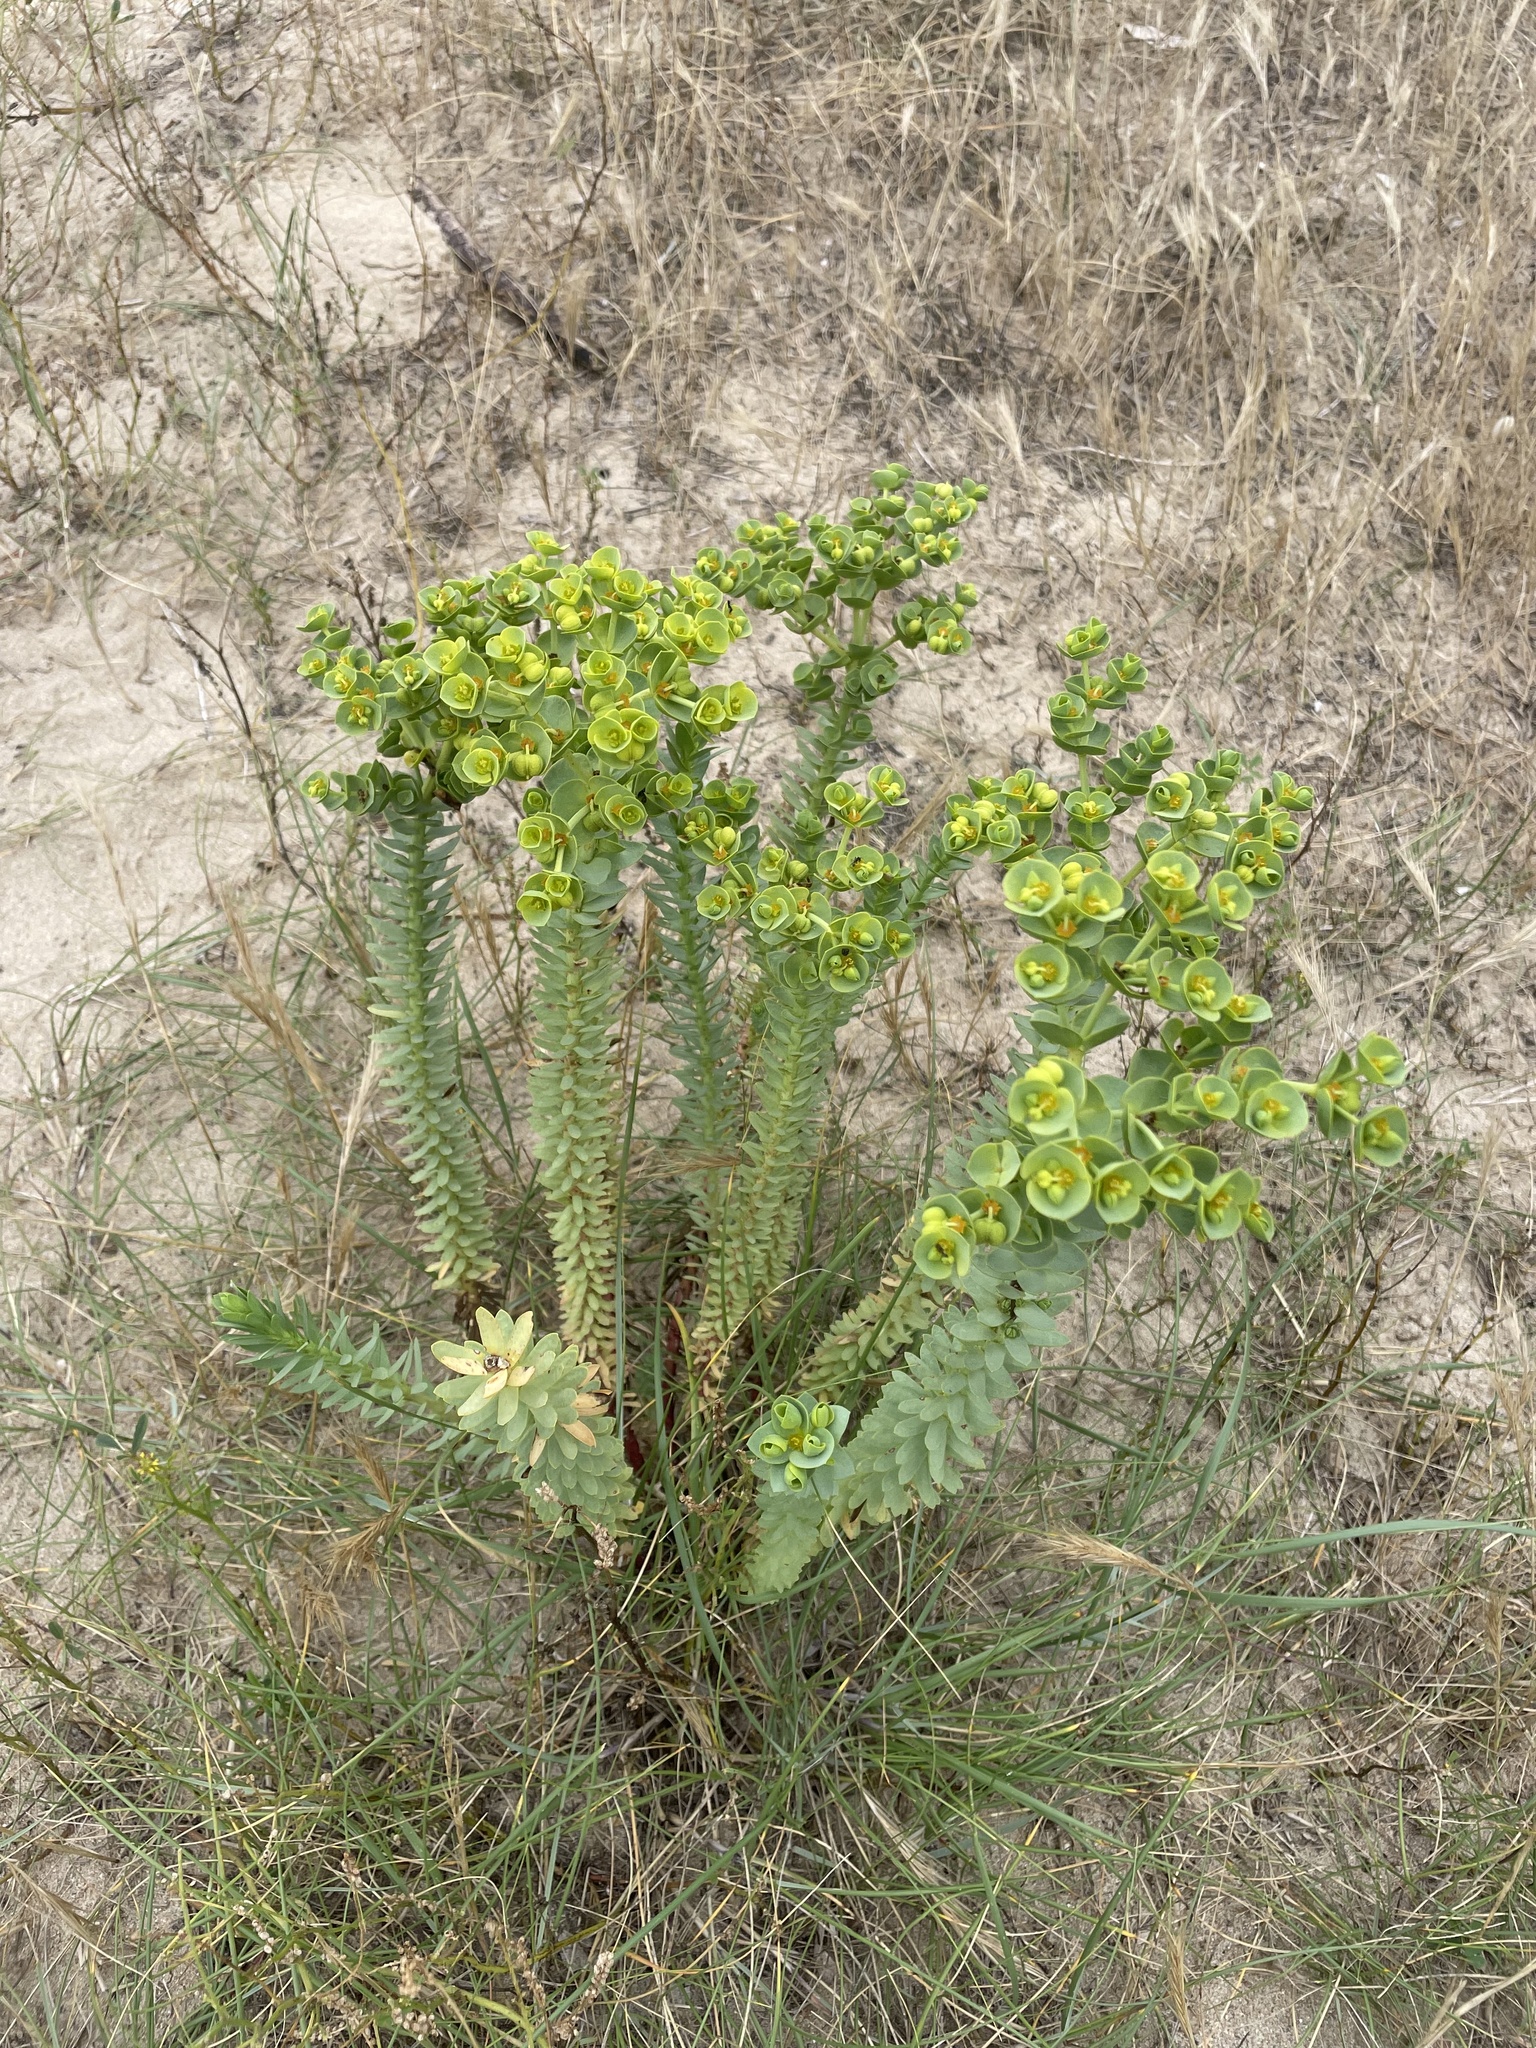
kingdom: Plantae
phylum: Tracheophyta
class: Magnoliopsida
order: Malpighiales
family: Euphorbiaceae
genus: Euphorbia
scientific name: Euphorbia paralias
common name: Sea spurge
